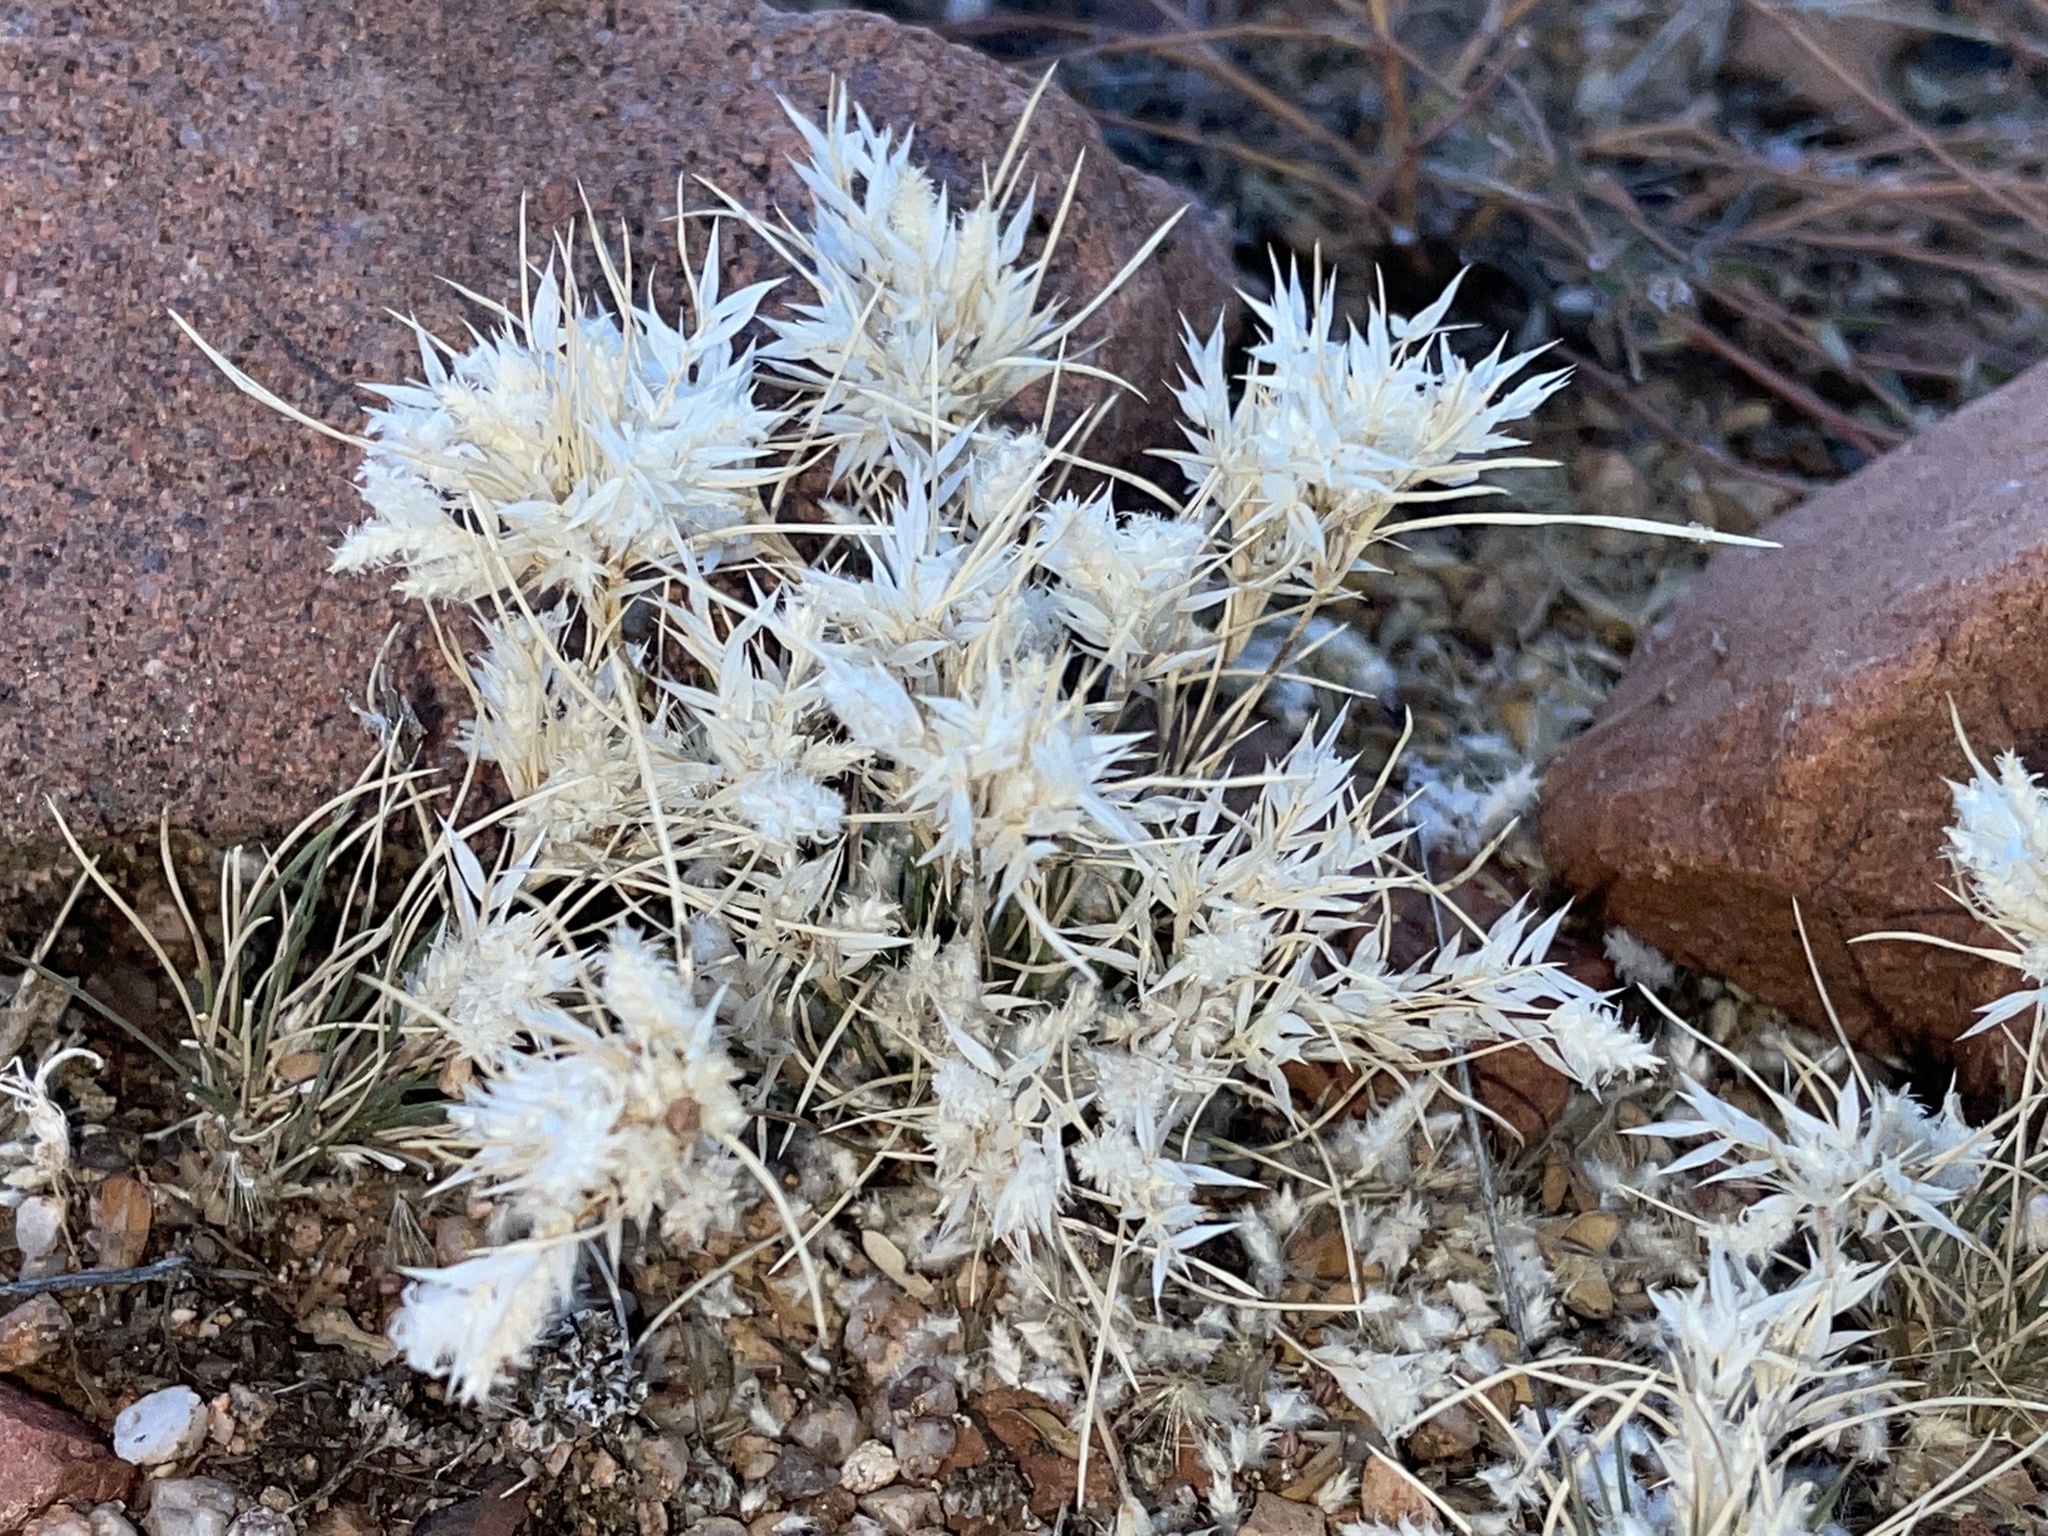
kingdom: Plantae
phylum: Tracheophyta
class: Liliopsida
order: Poales
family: Poaceae
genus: Dasyochloa
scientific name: Dasyochloa pulchella
